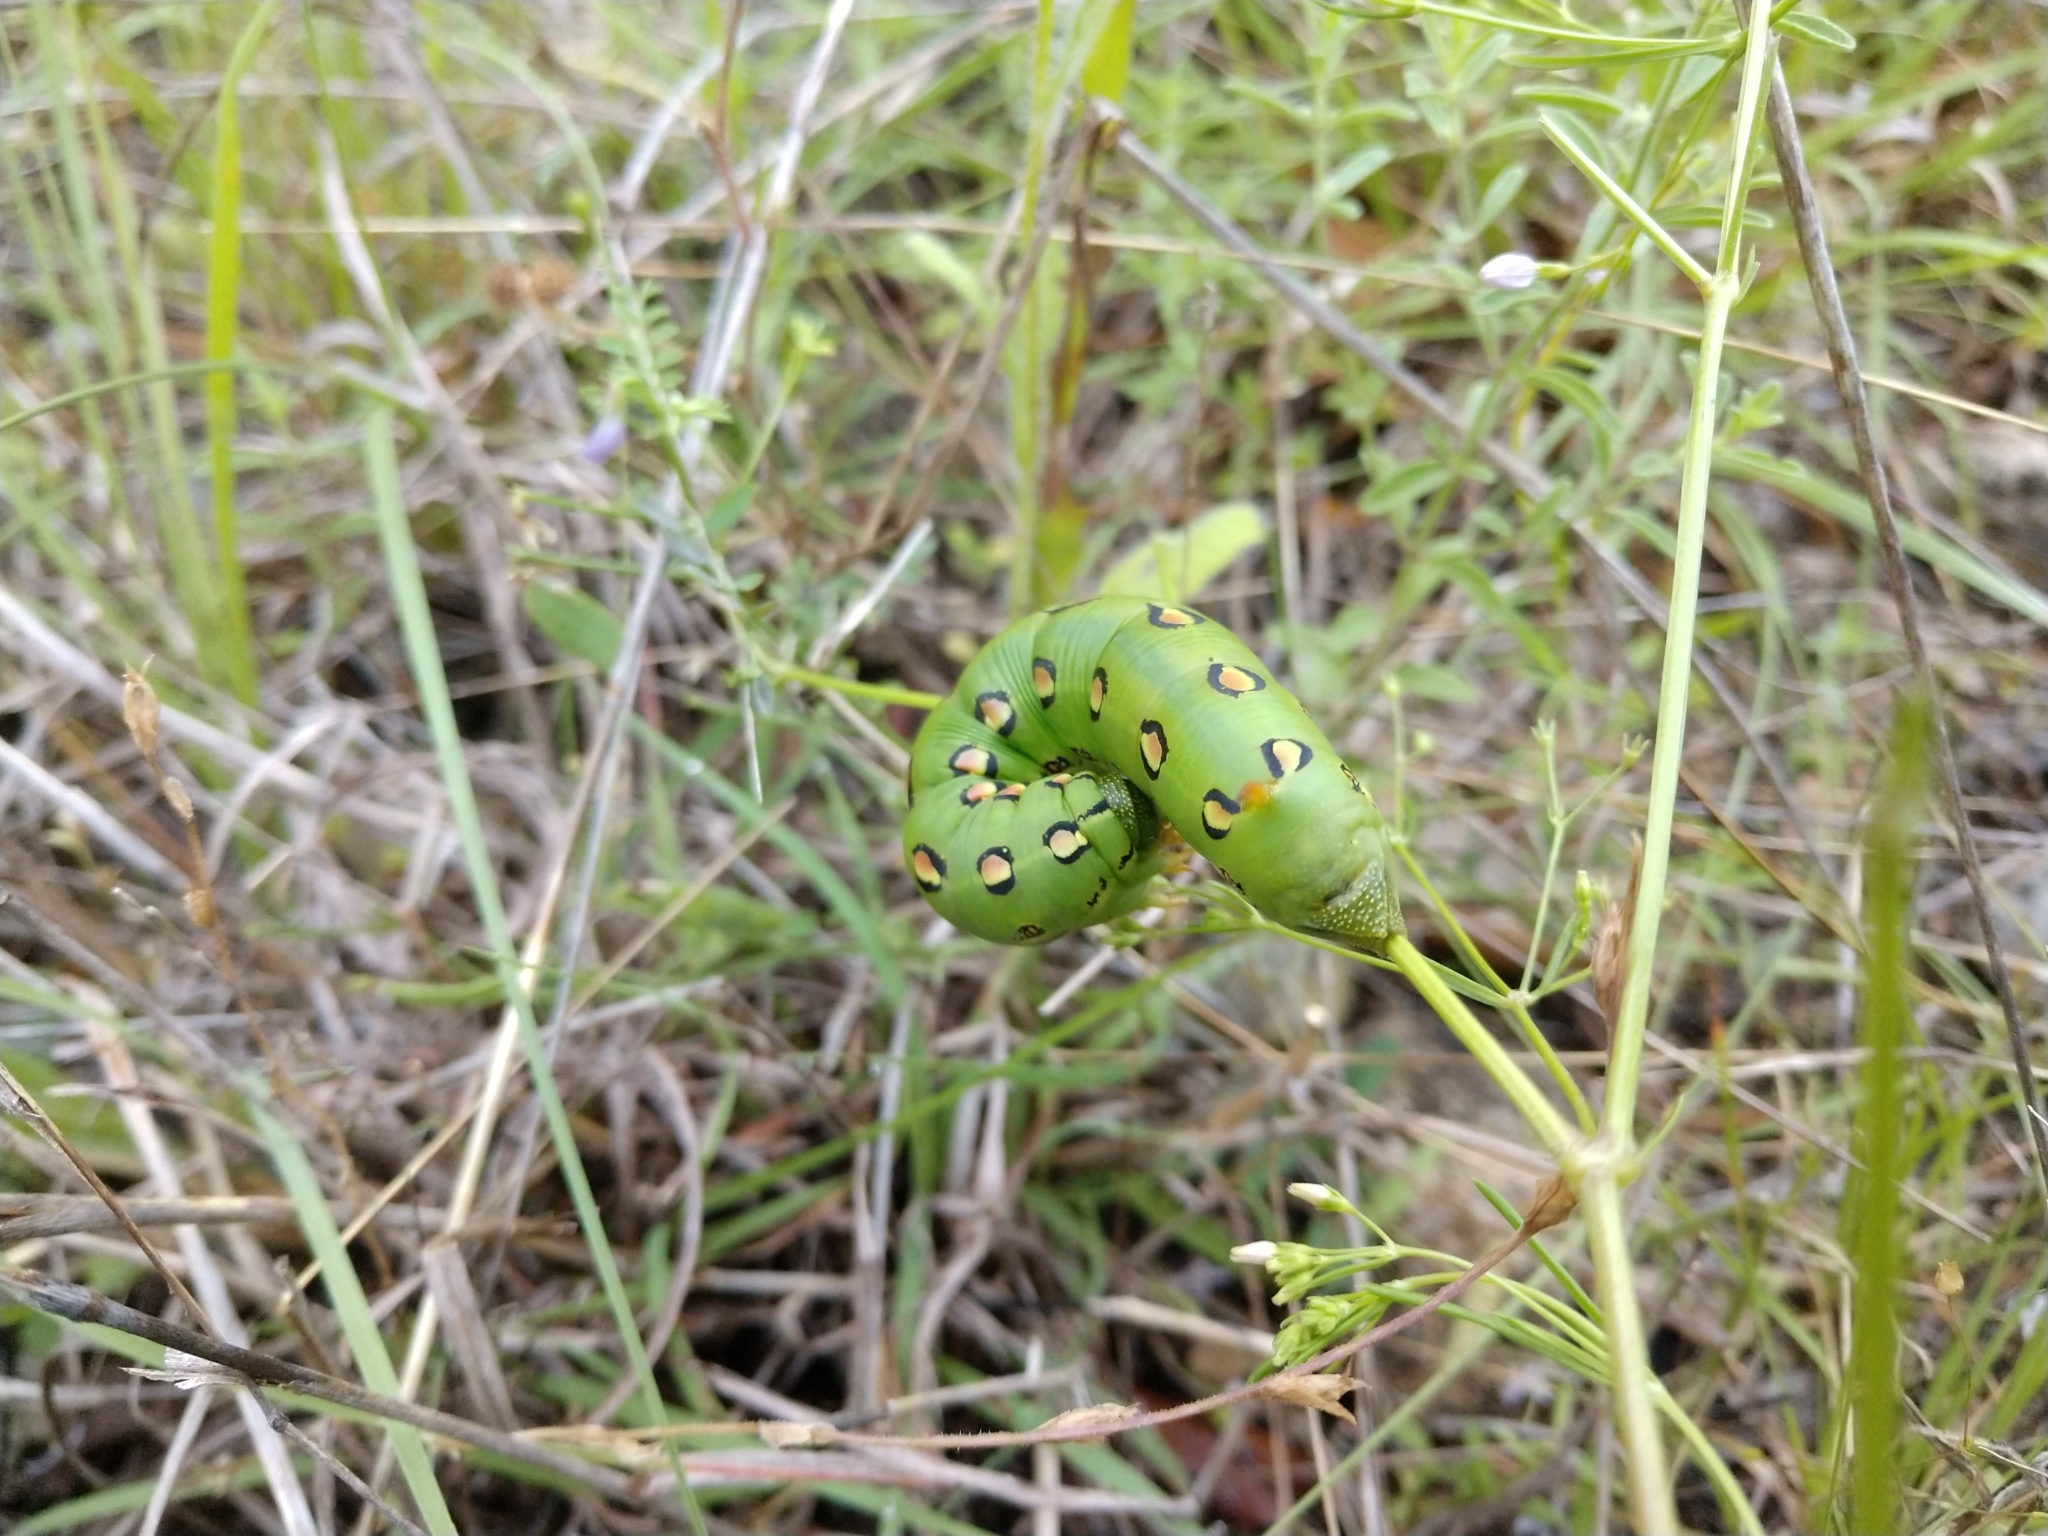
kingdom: Animalia
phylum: Arthropoda
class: Insecta
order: Lepidoptera
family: Sphingidae
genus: Hyles
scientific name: Hyles lineata
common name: White-lined sphinx
